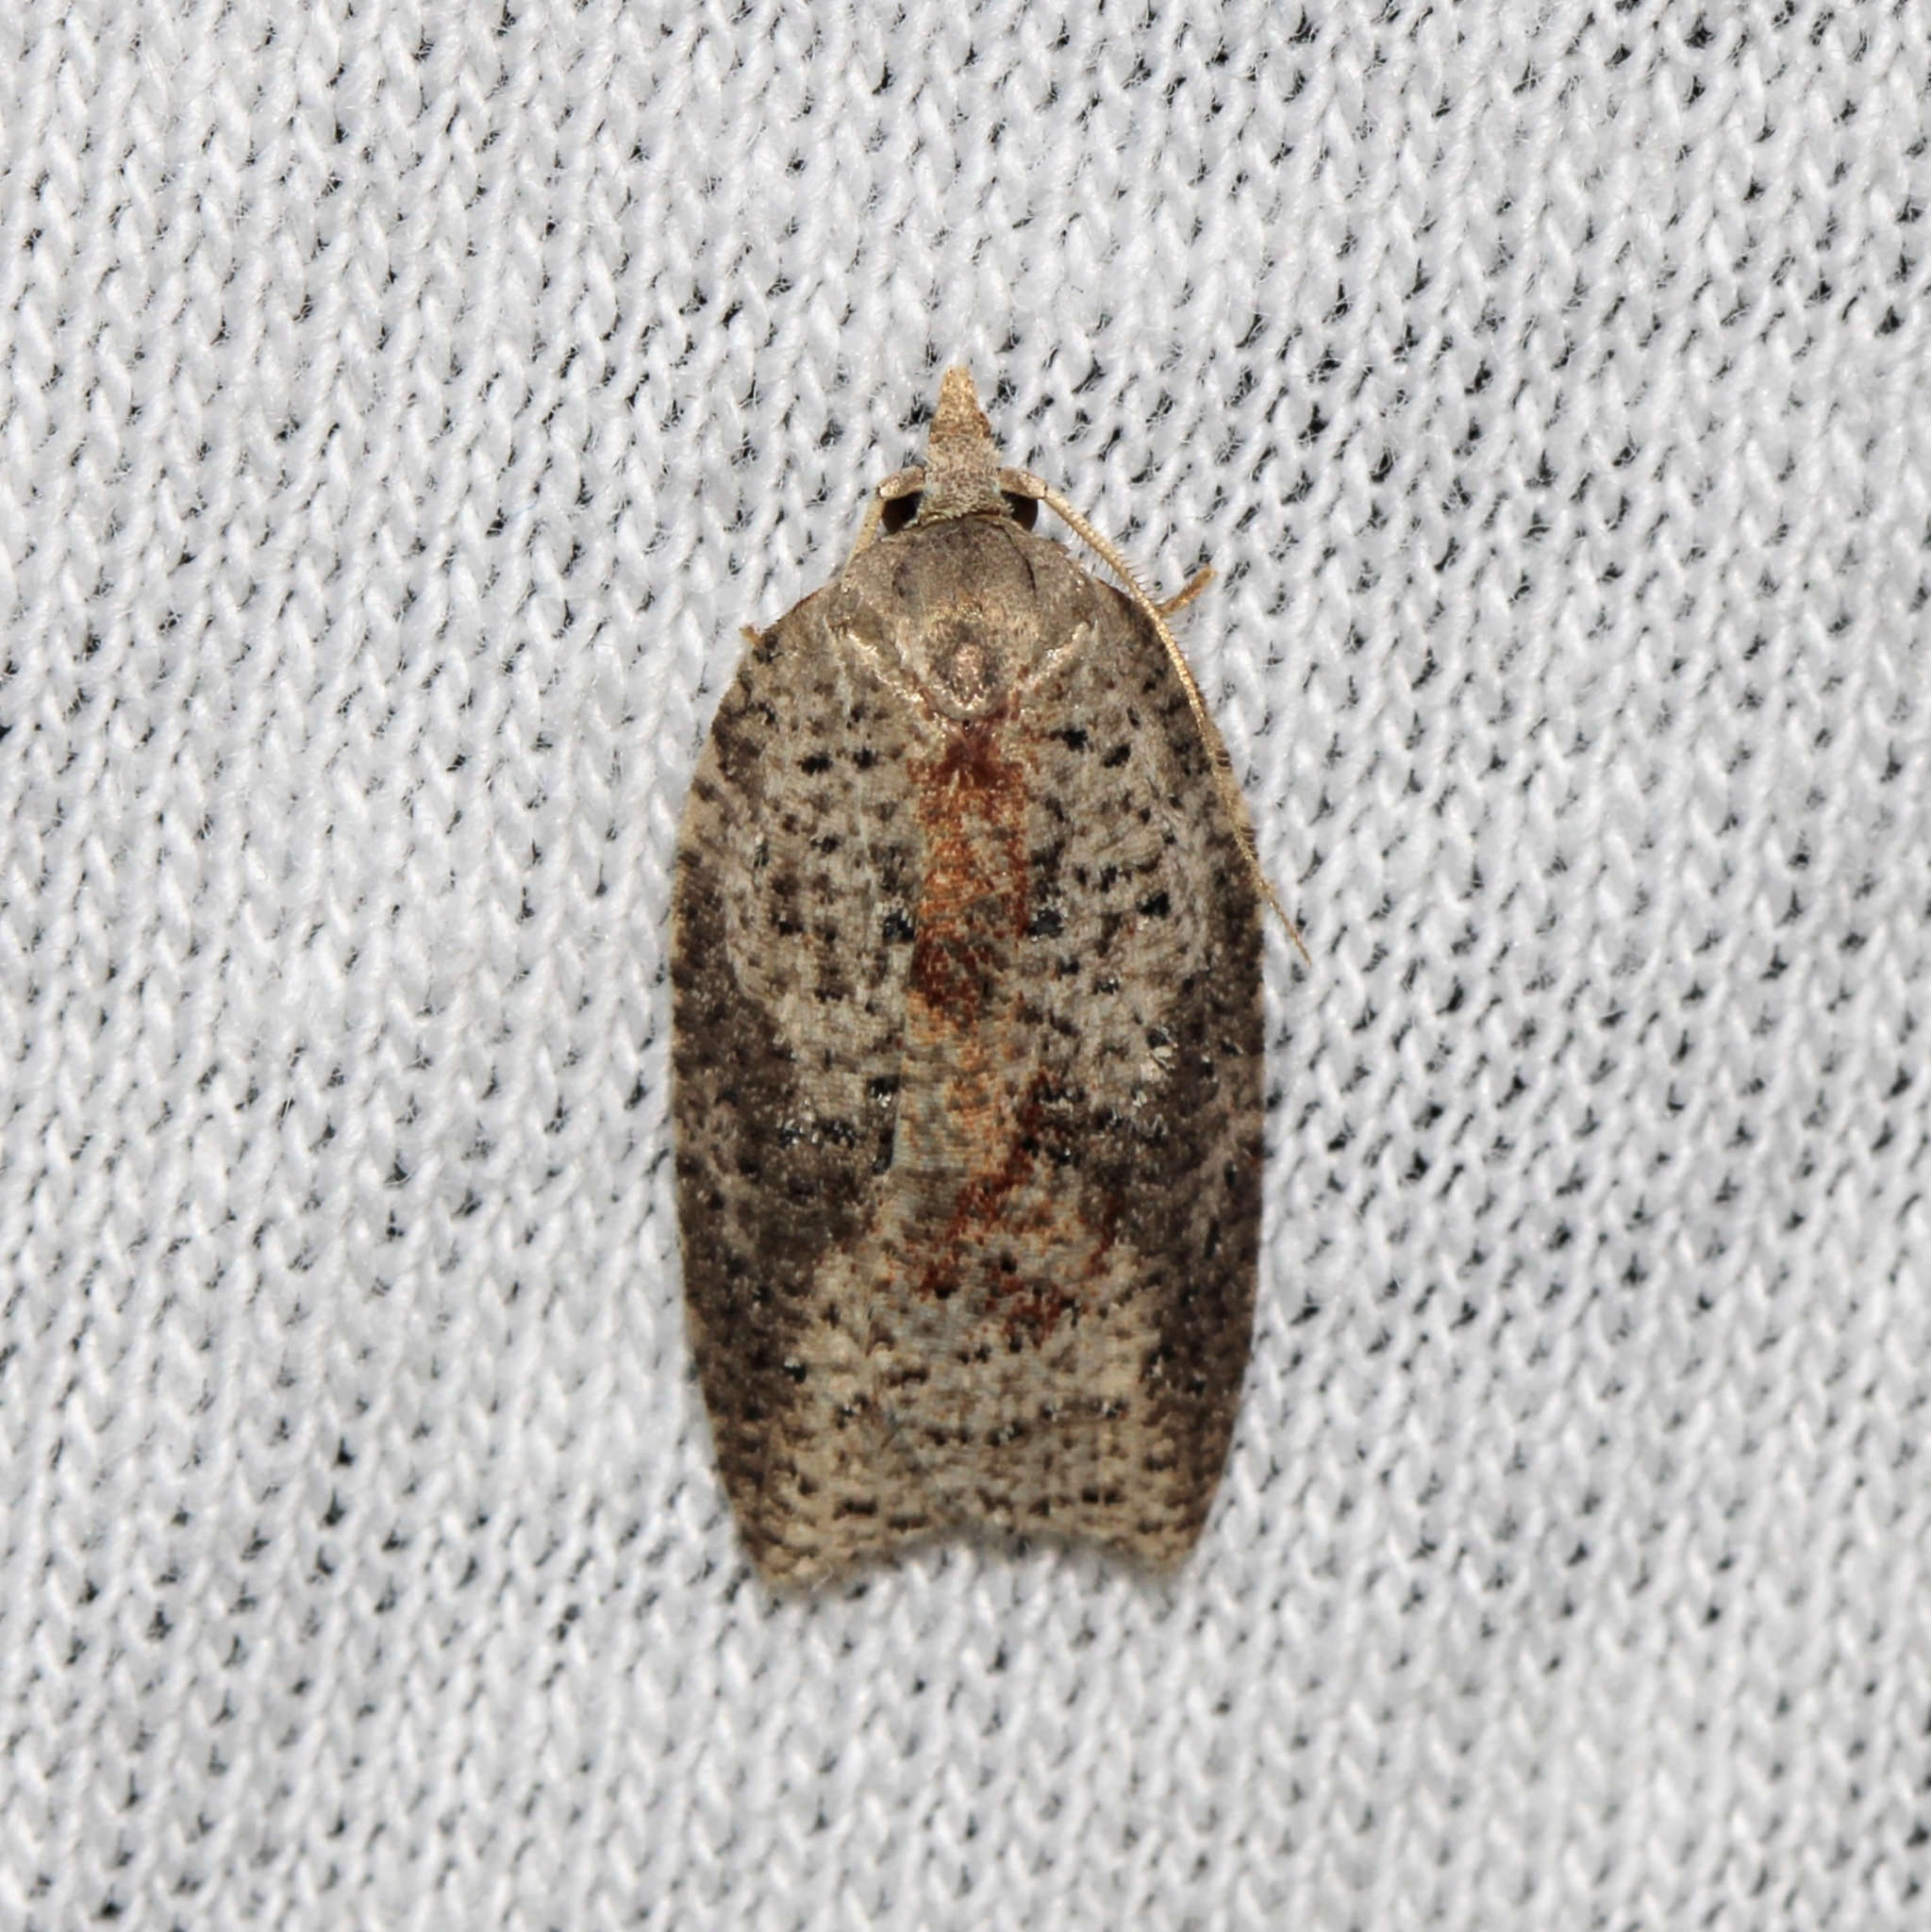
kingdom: Animalia
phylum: Arthropoda
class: Insecta
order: Lepidoptera
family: Tortricidae
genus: Amorbia
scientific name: Amorbia humerosana
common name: White-lined leafroller moth
